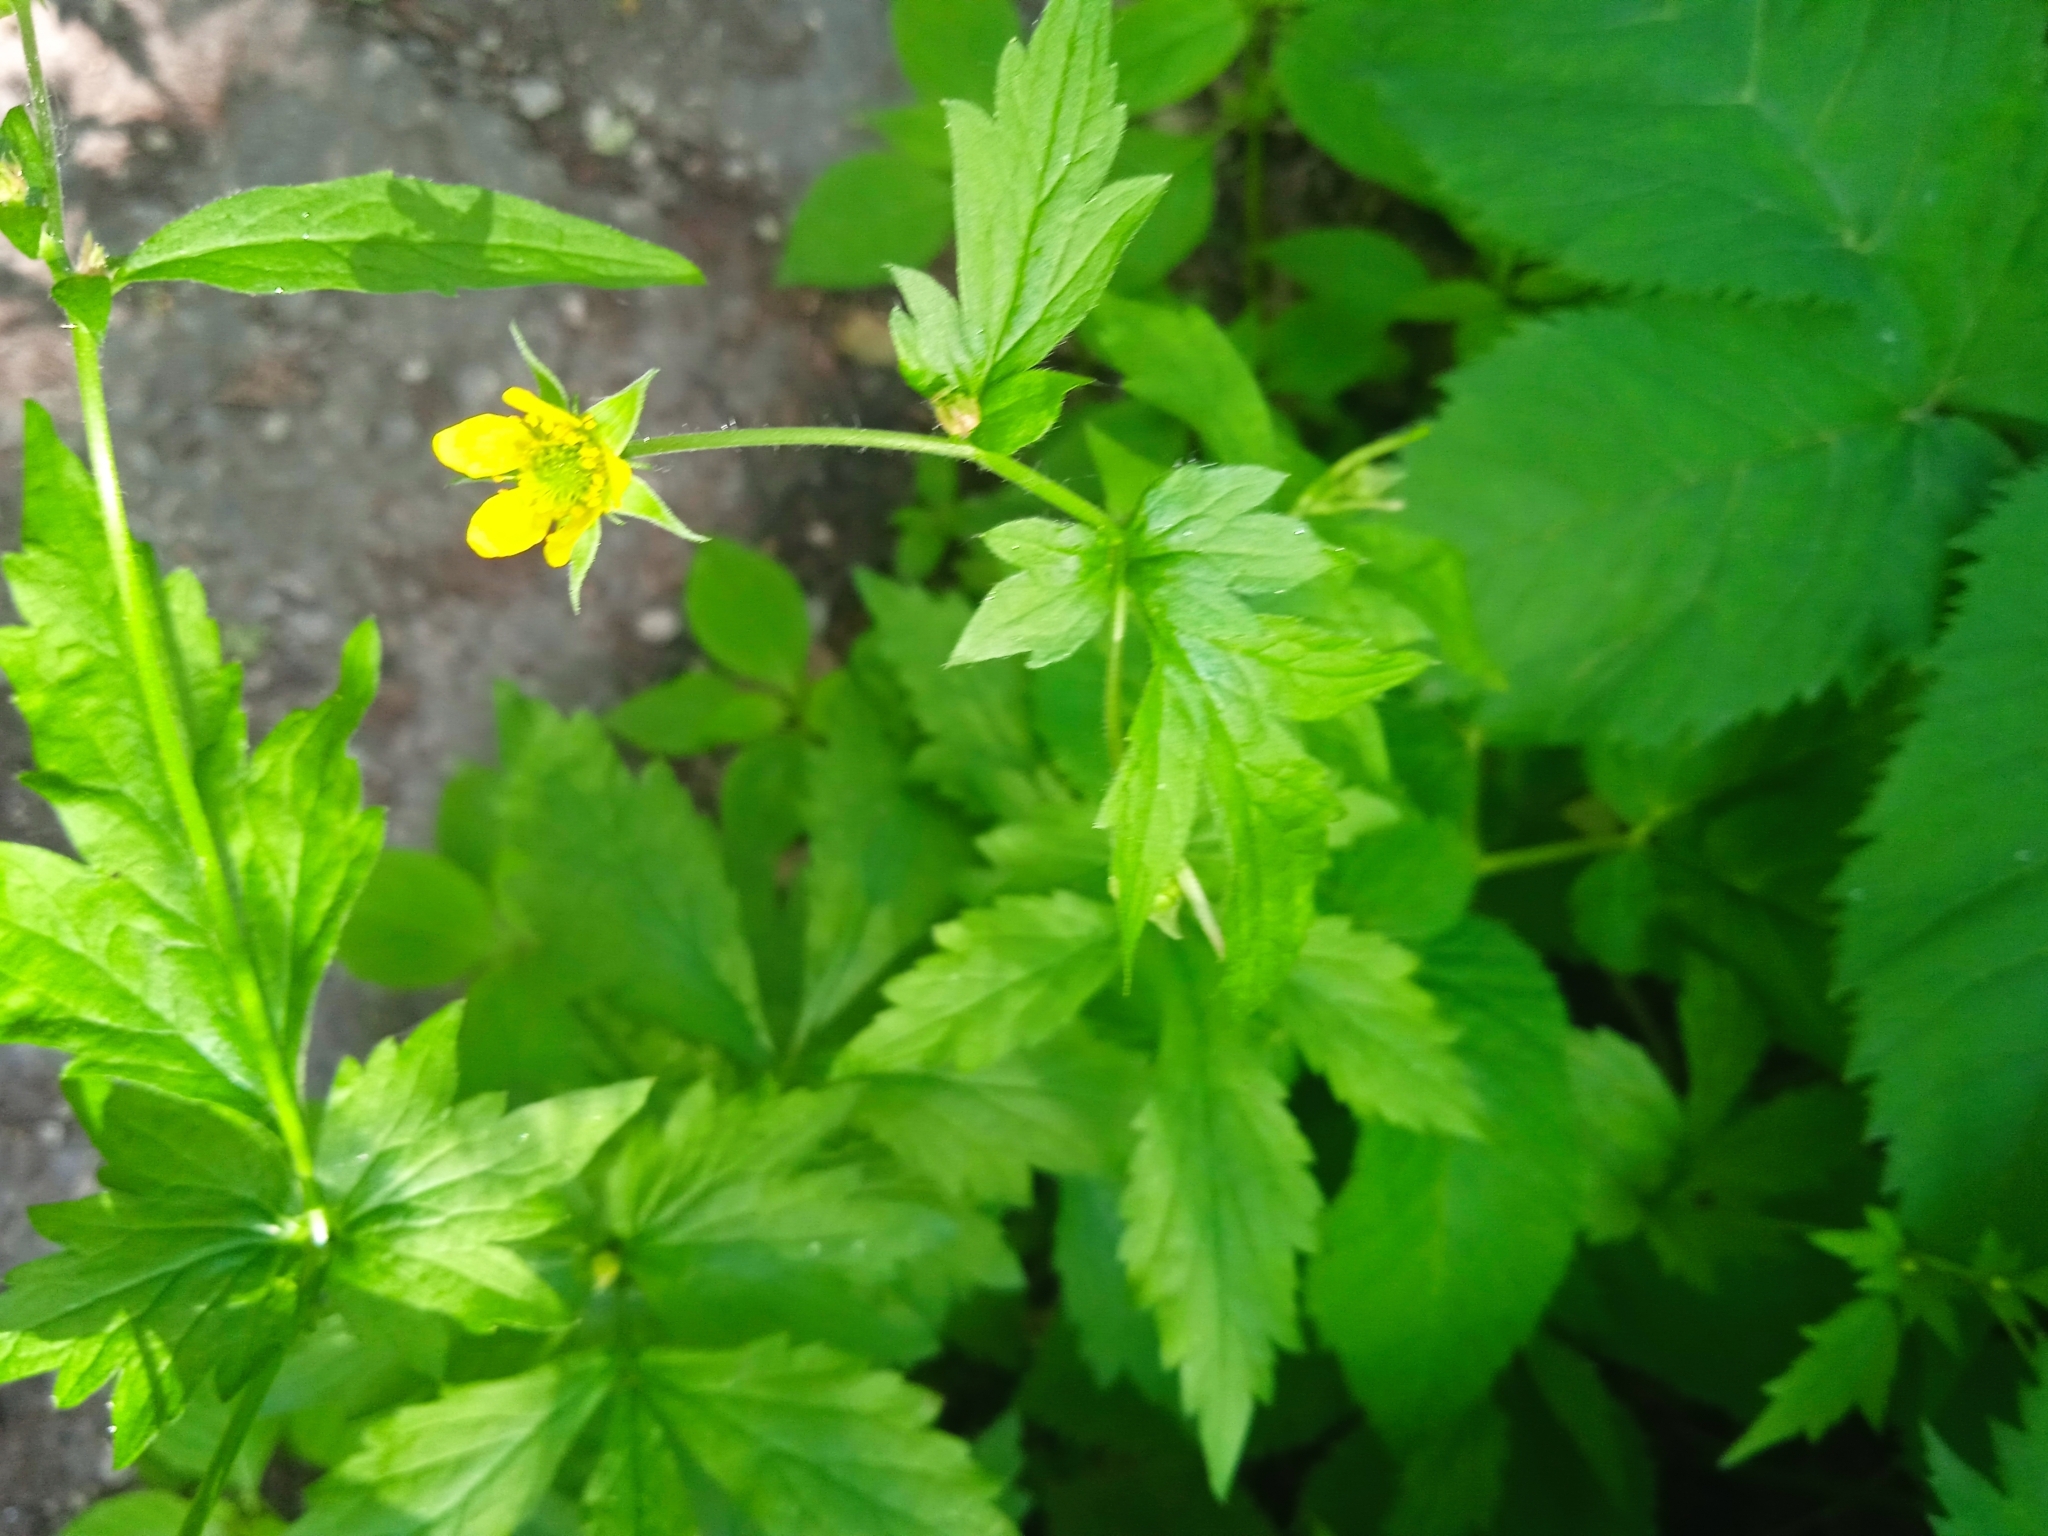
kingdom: Plantae
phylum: Tracheophyta
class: Magnoliopsida
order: Rosales
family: Rosaceae
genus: Geum
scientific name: Geum urbanum
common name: Wood avens
